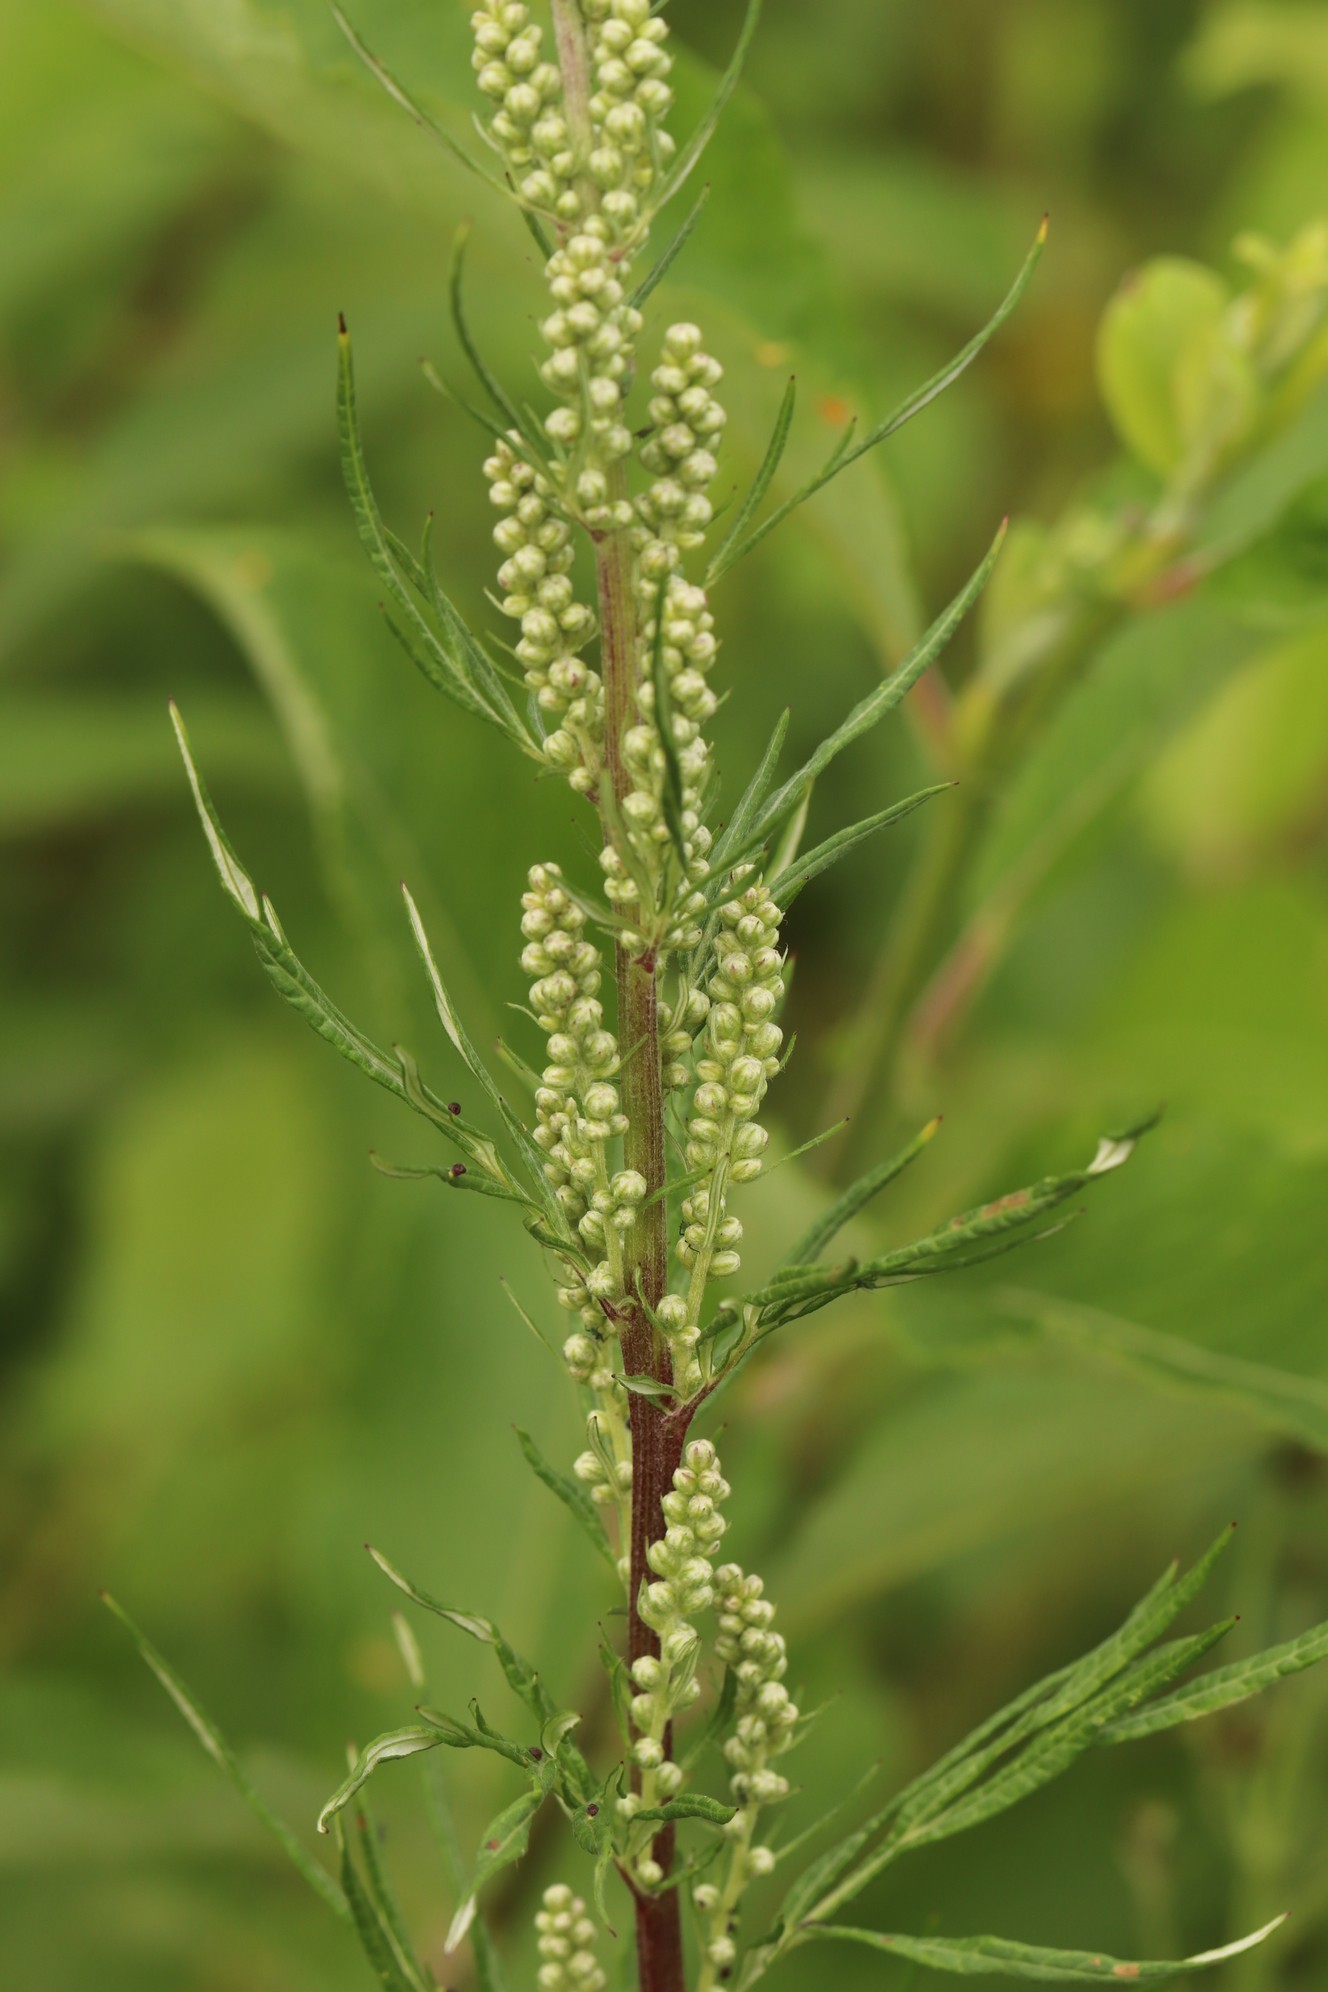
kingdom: Plantae
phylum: Tracheophyta
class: Magnoliopsida
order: Asterales
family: Asteraceae
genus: Artemisia
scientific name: Artemisia vulgaris
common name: Mugwort
